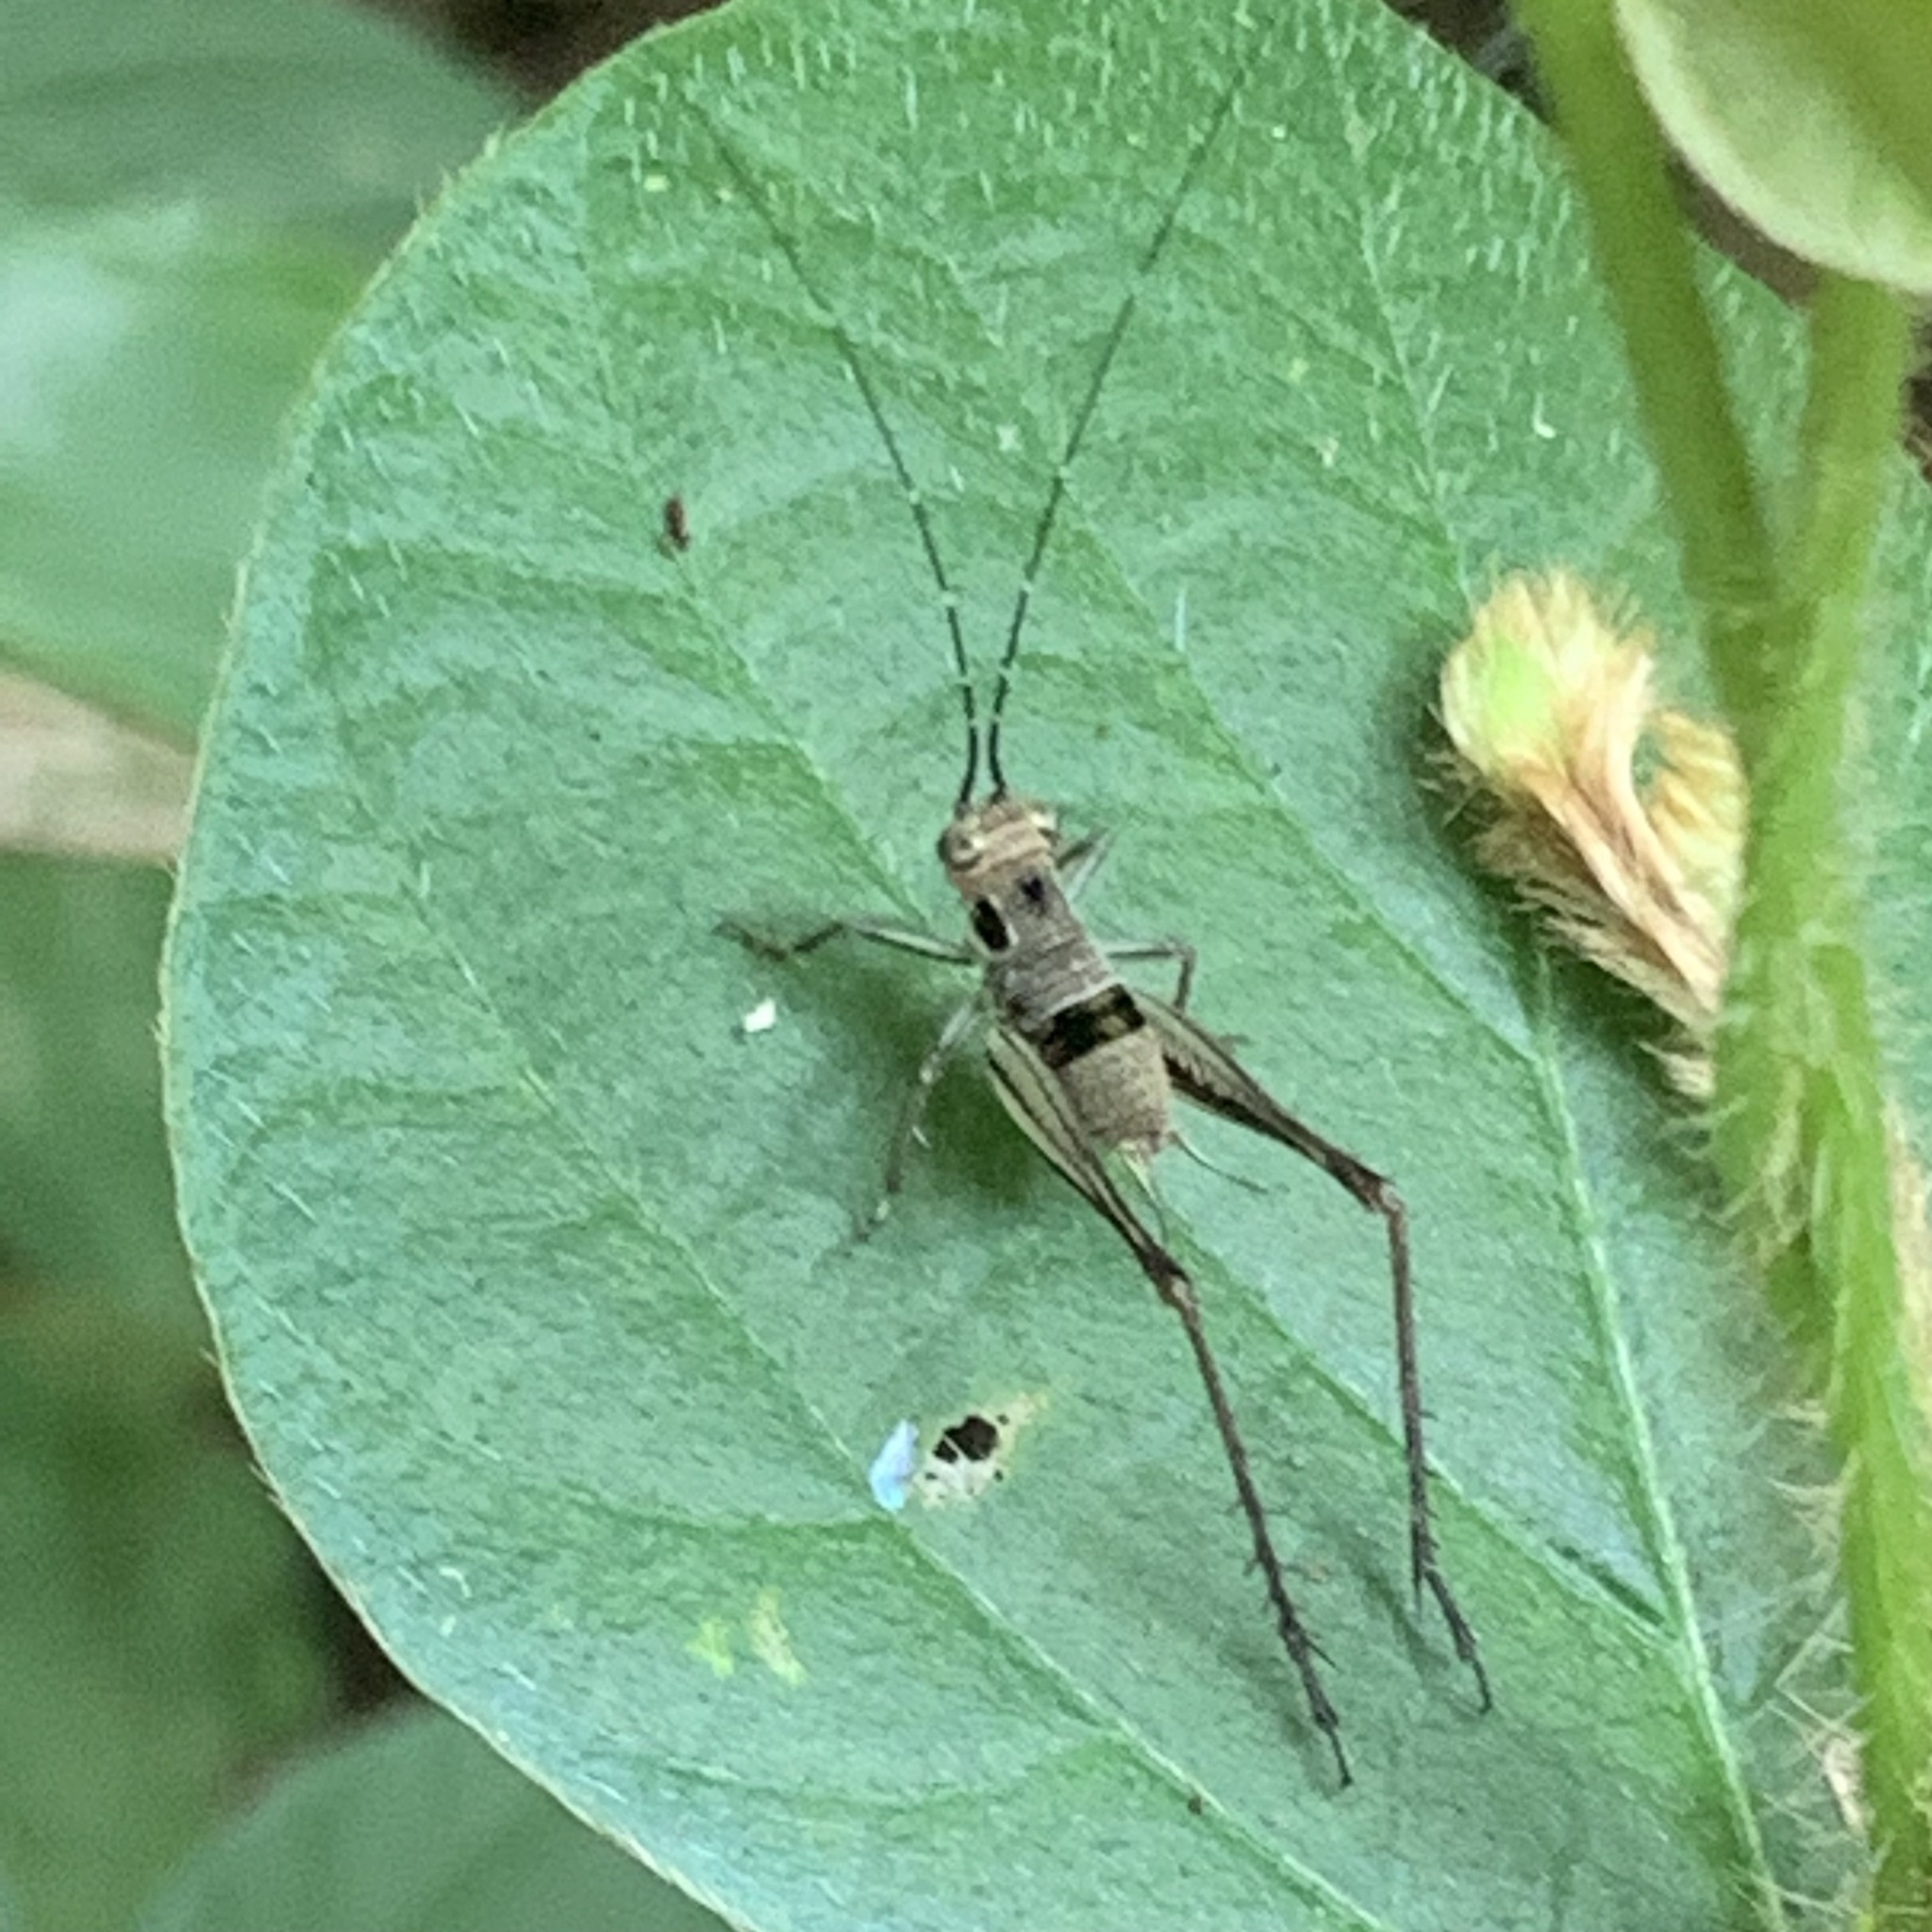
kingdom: Animalia
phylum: Arthropoda
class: Insecta
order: Orthoptera
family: Gryllidae
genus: Nisitrus
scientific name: Nisitrus malaya
